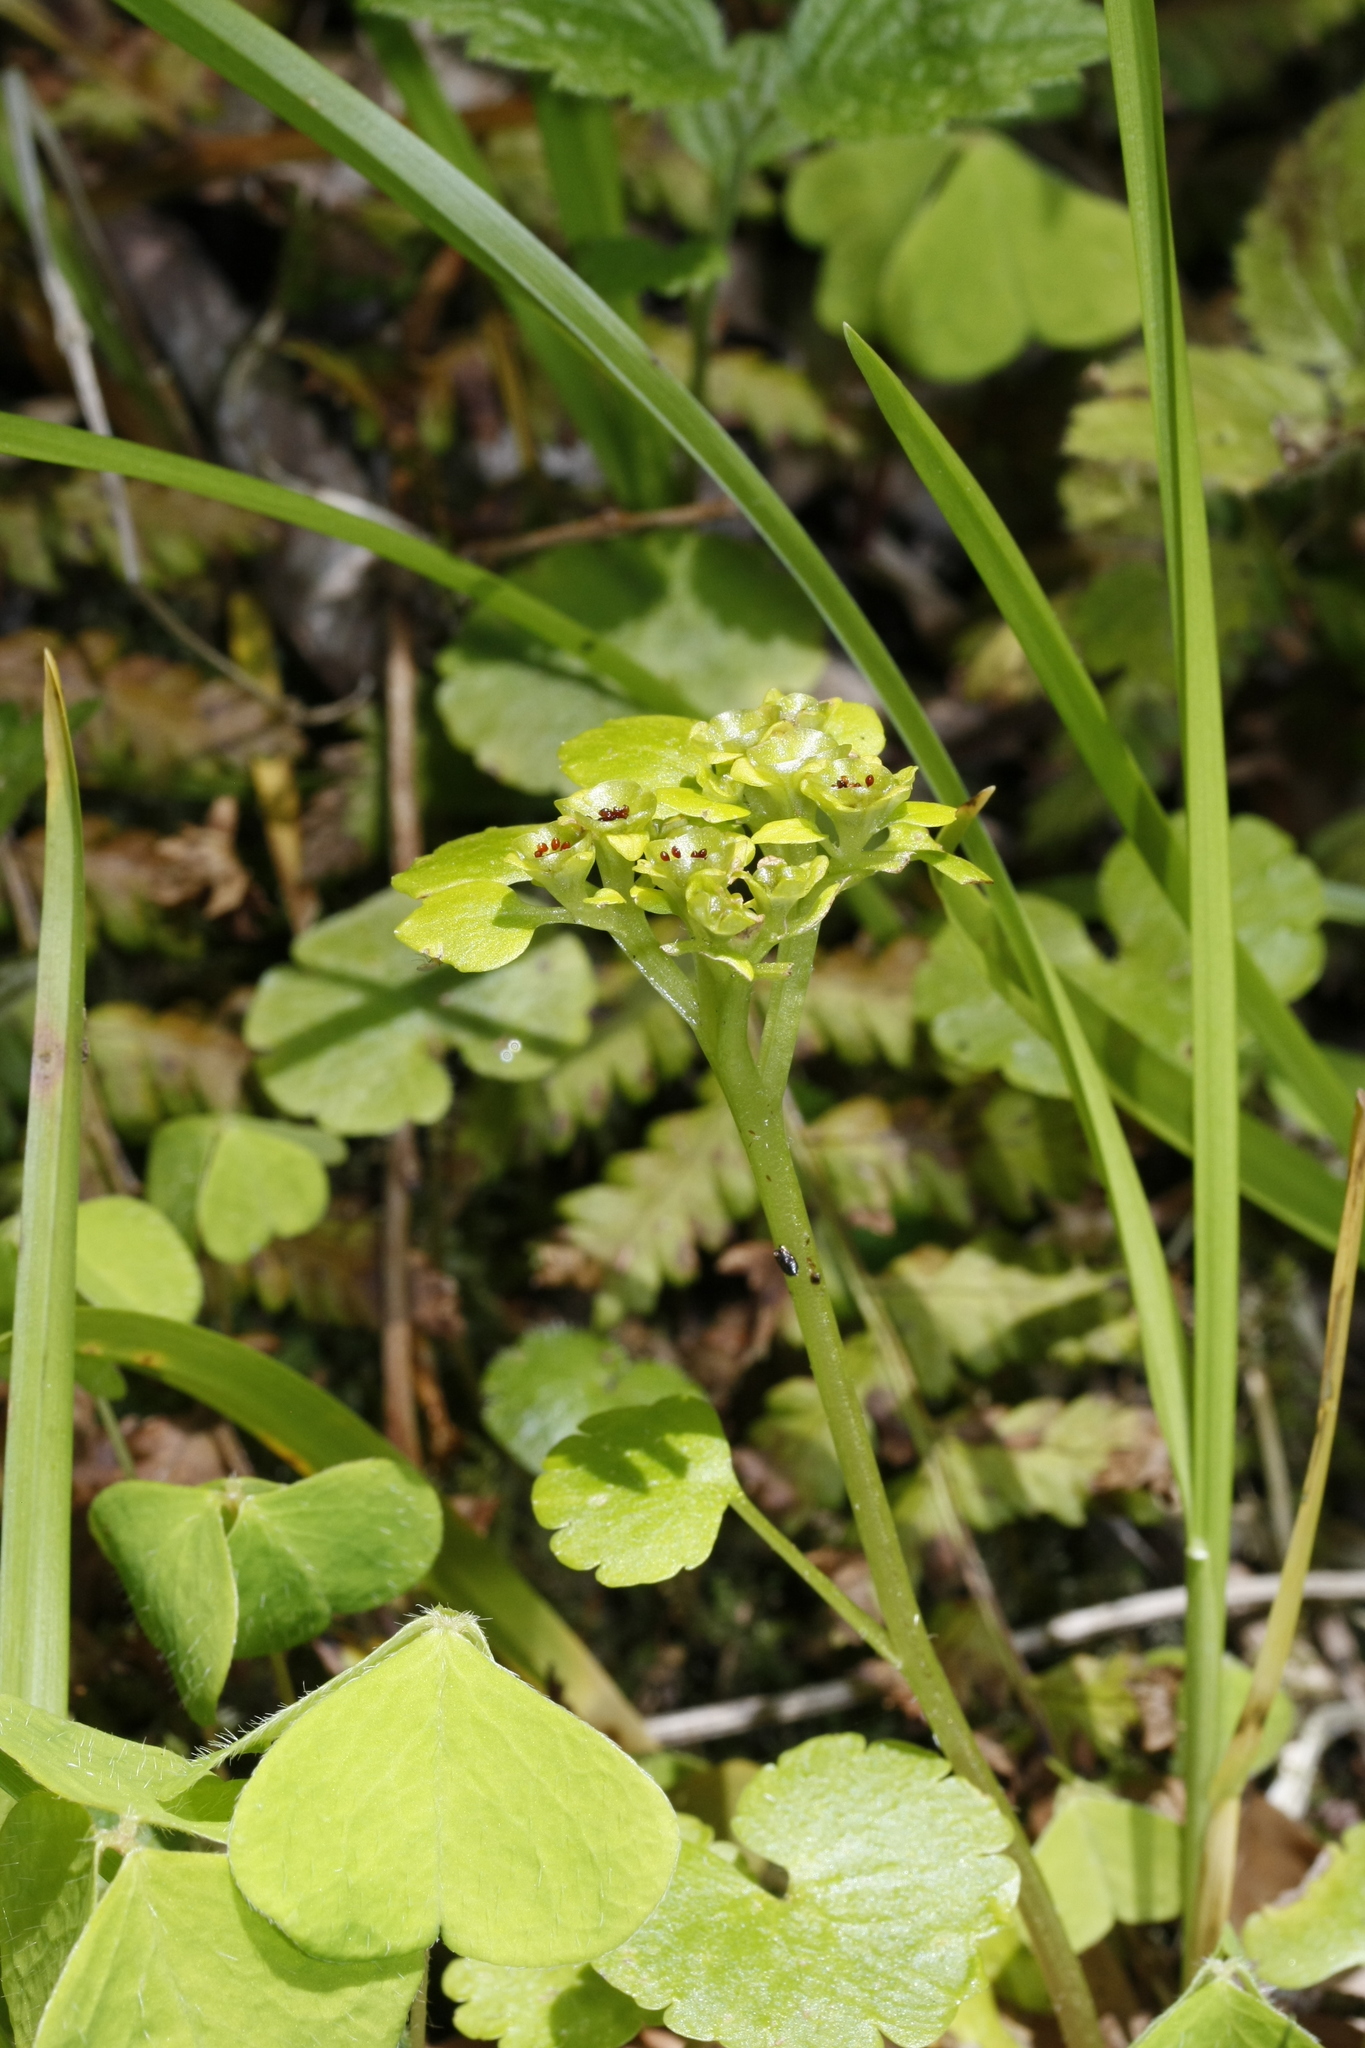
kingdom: Plantae
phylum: Tracheophyta
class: Magnoliopsida
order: Saxifragales
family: Saxifragaceae
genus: Chrysosplenium
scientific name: Chrysosplenium alternifolium
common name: Alternate-leaved golden-saxifrage
